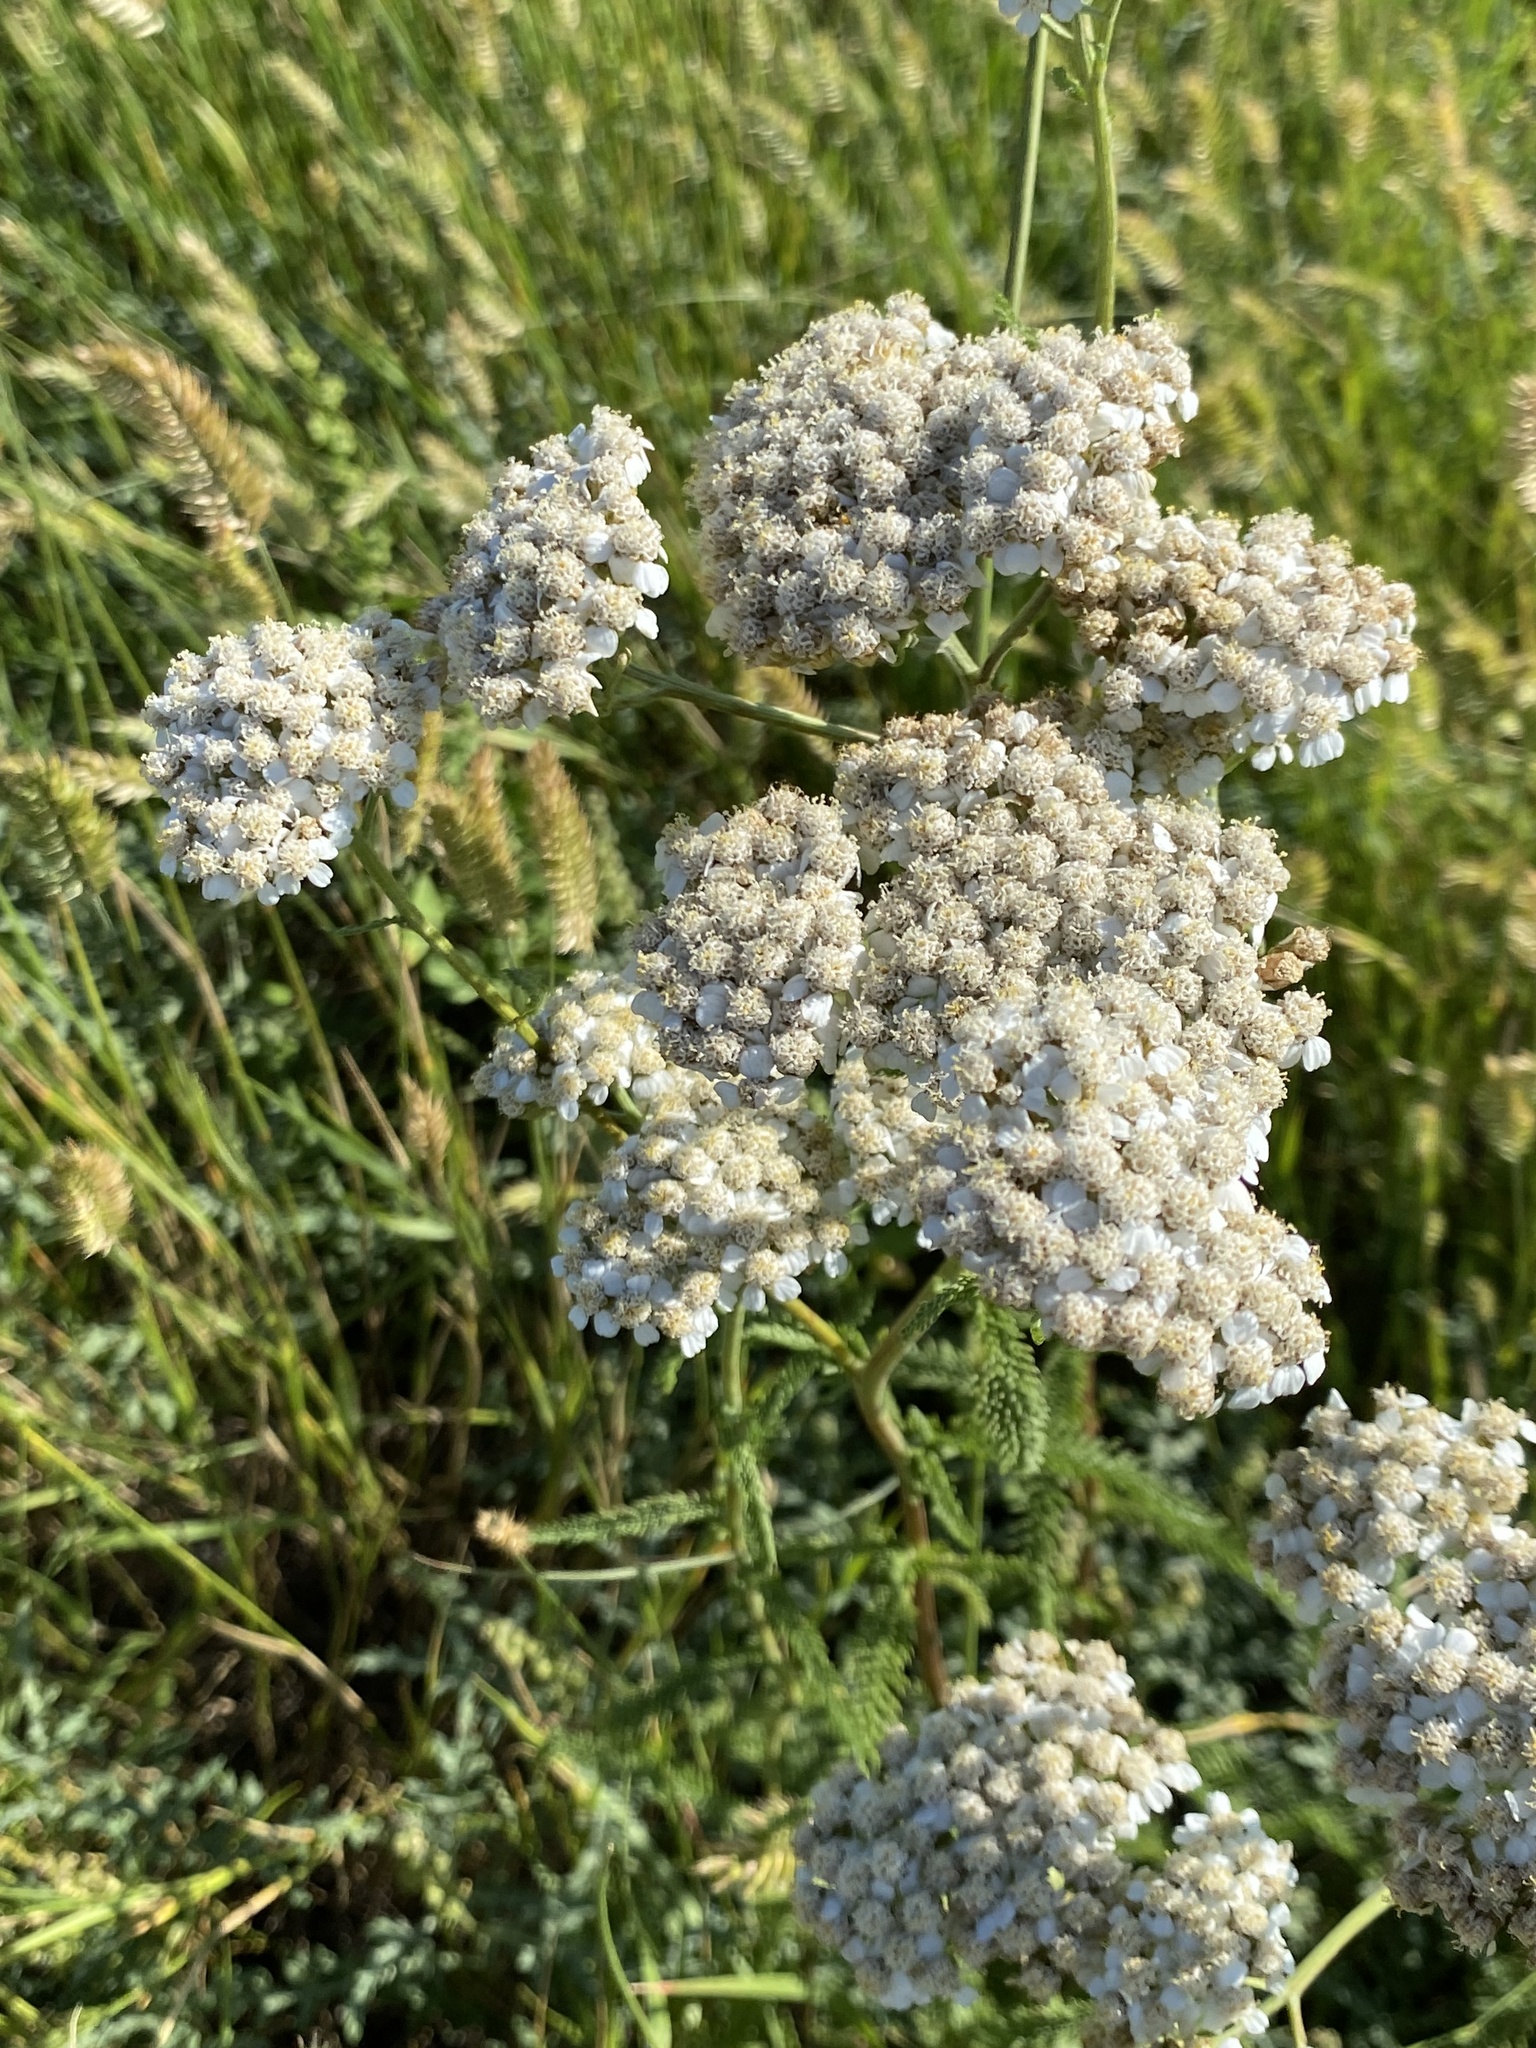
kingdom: Plantae
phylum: Tracheophyta
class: Magnoliopsida
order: Asterales
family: Asteraceae
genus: Achillea
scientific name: Achillea millefolium
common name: Yarrow
